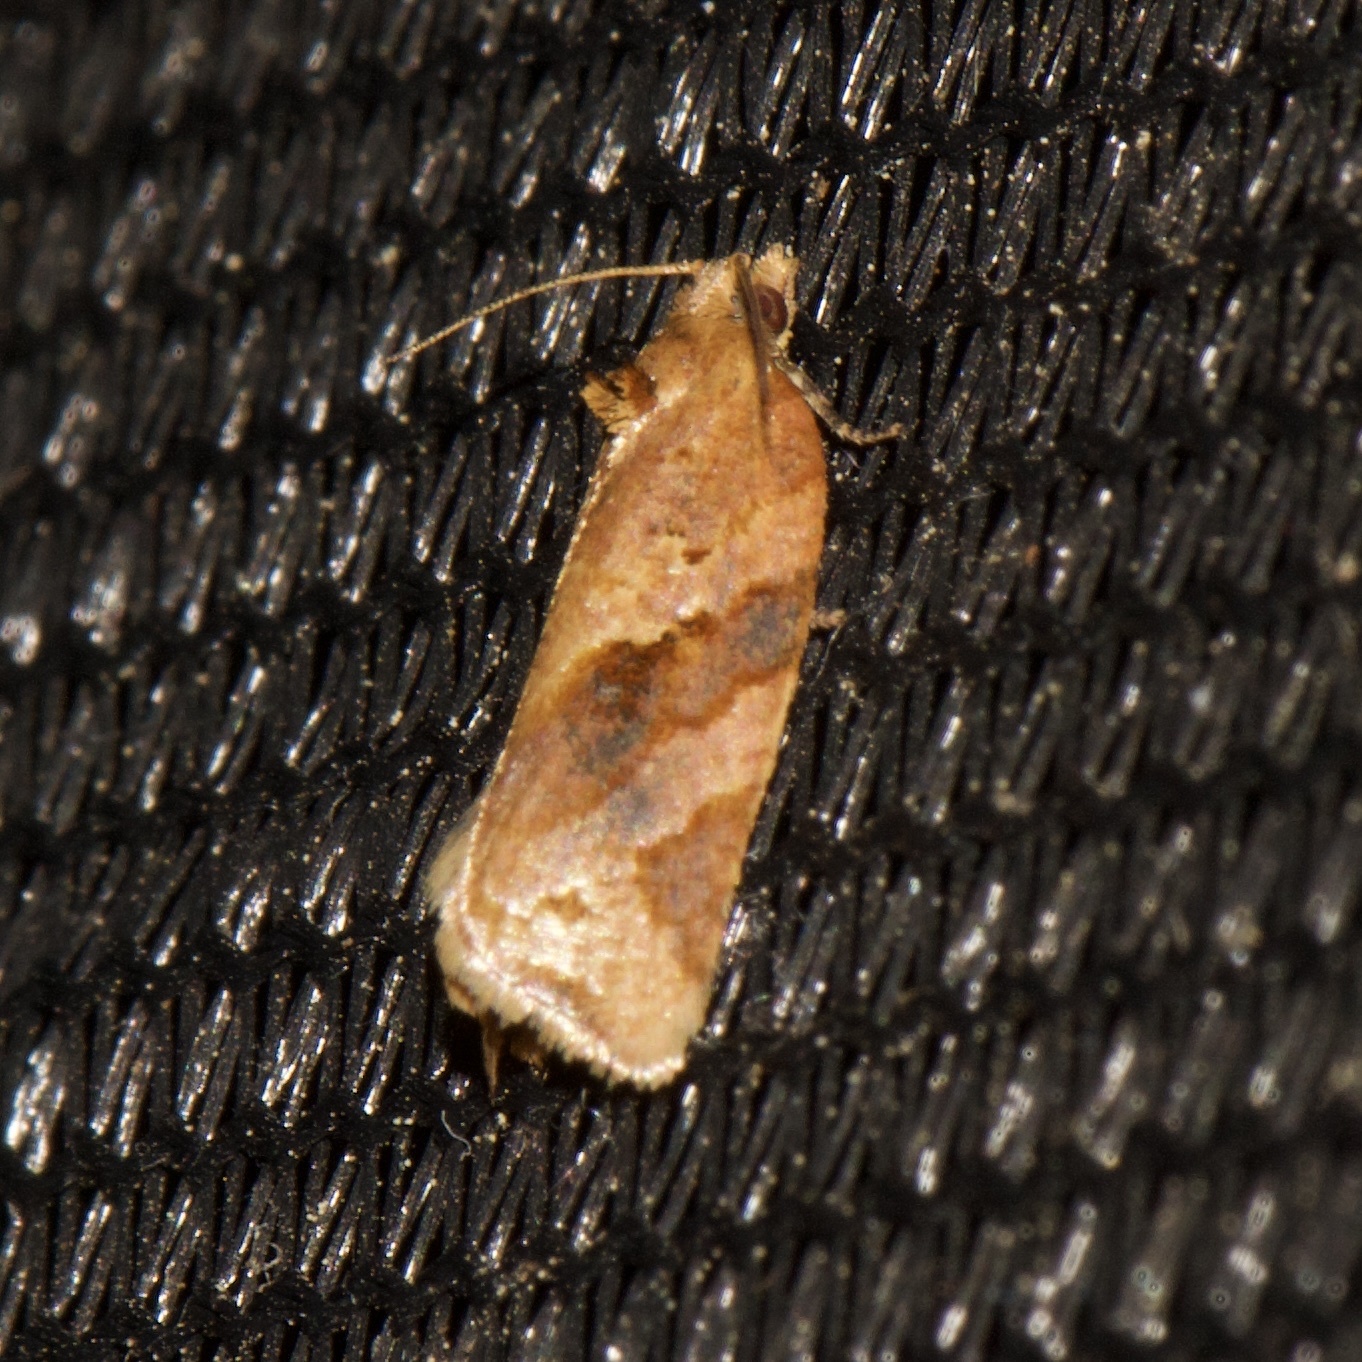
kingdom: Animalia
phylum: Arthropoda
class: Insecta
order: Lepidoptera
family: Tortricidae
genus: Clepsis
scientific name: Clepsis peritana
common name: Garden tortrix
